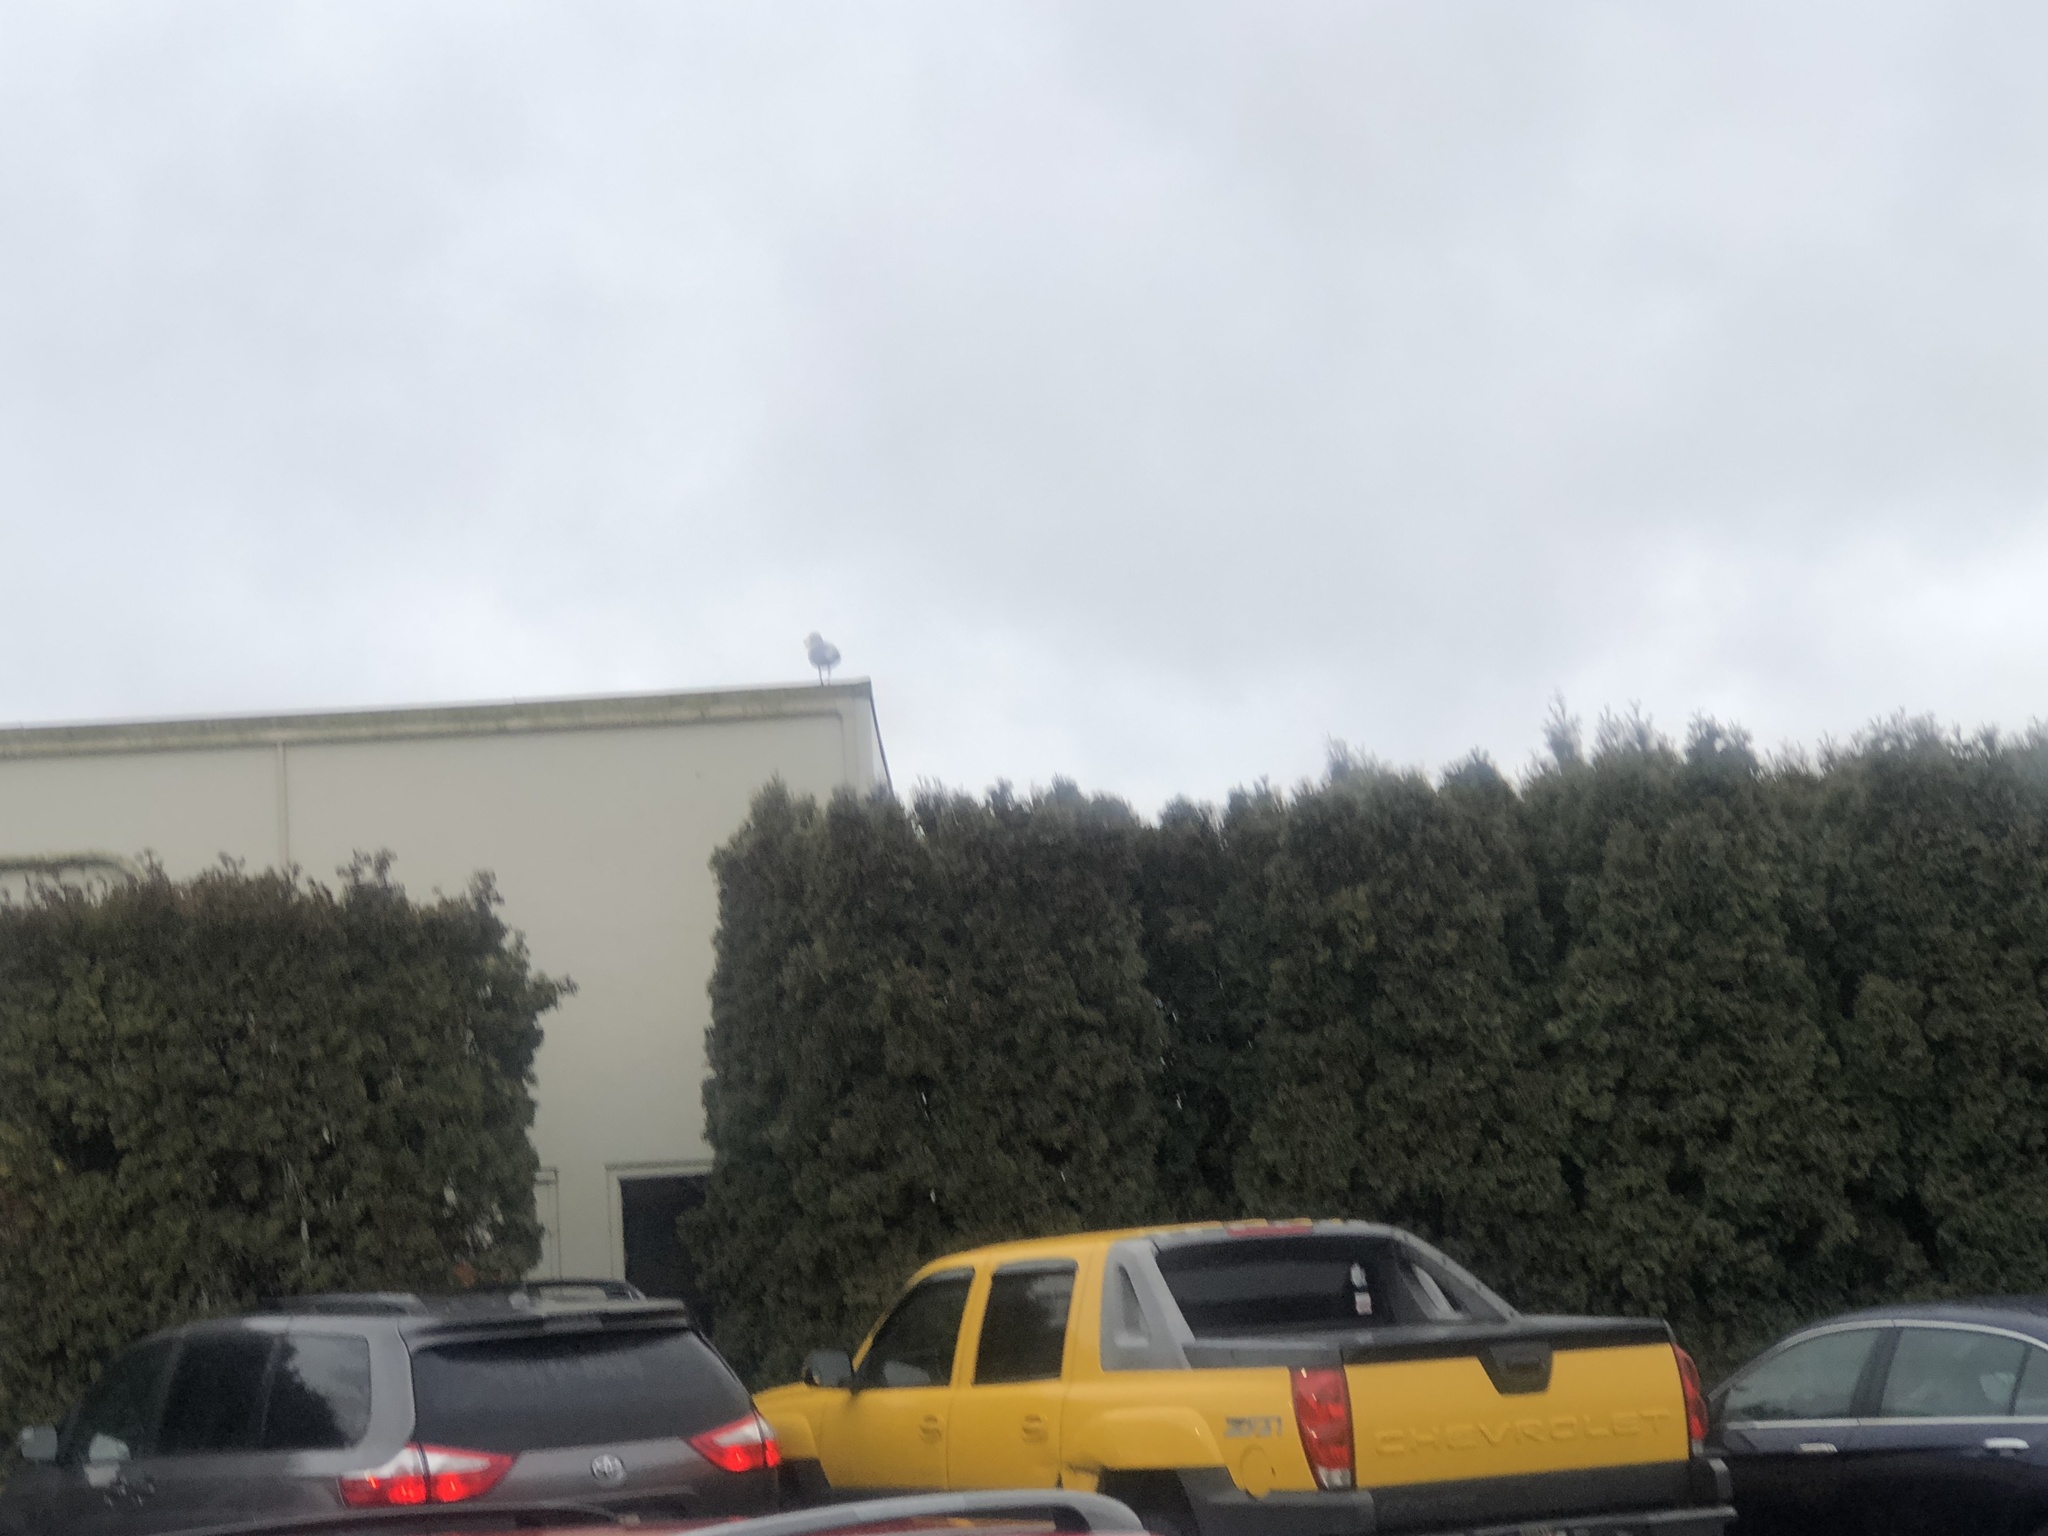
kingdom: Animalia
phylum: Chordata
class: Aves
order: Charadriiformes
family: Laridae
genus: Larus
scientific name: Larus
